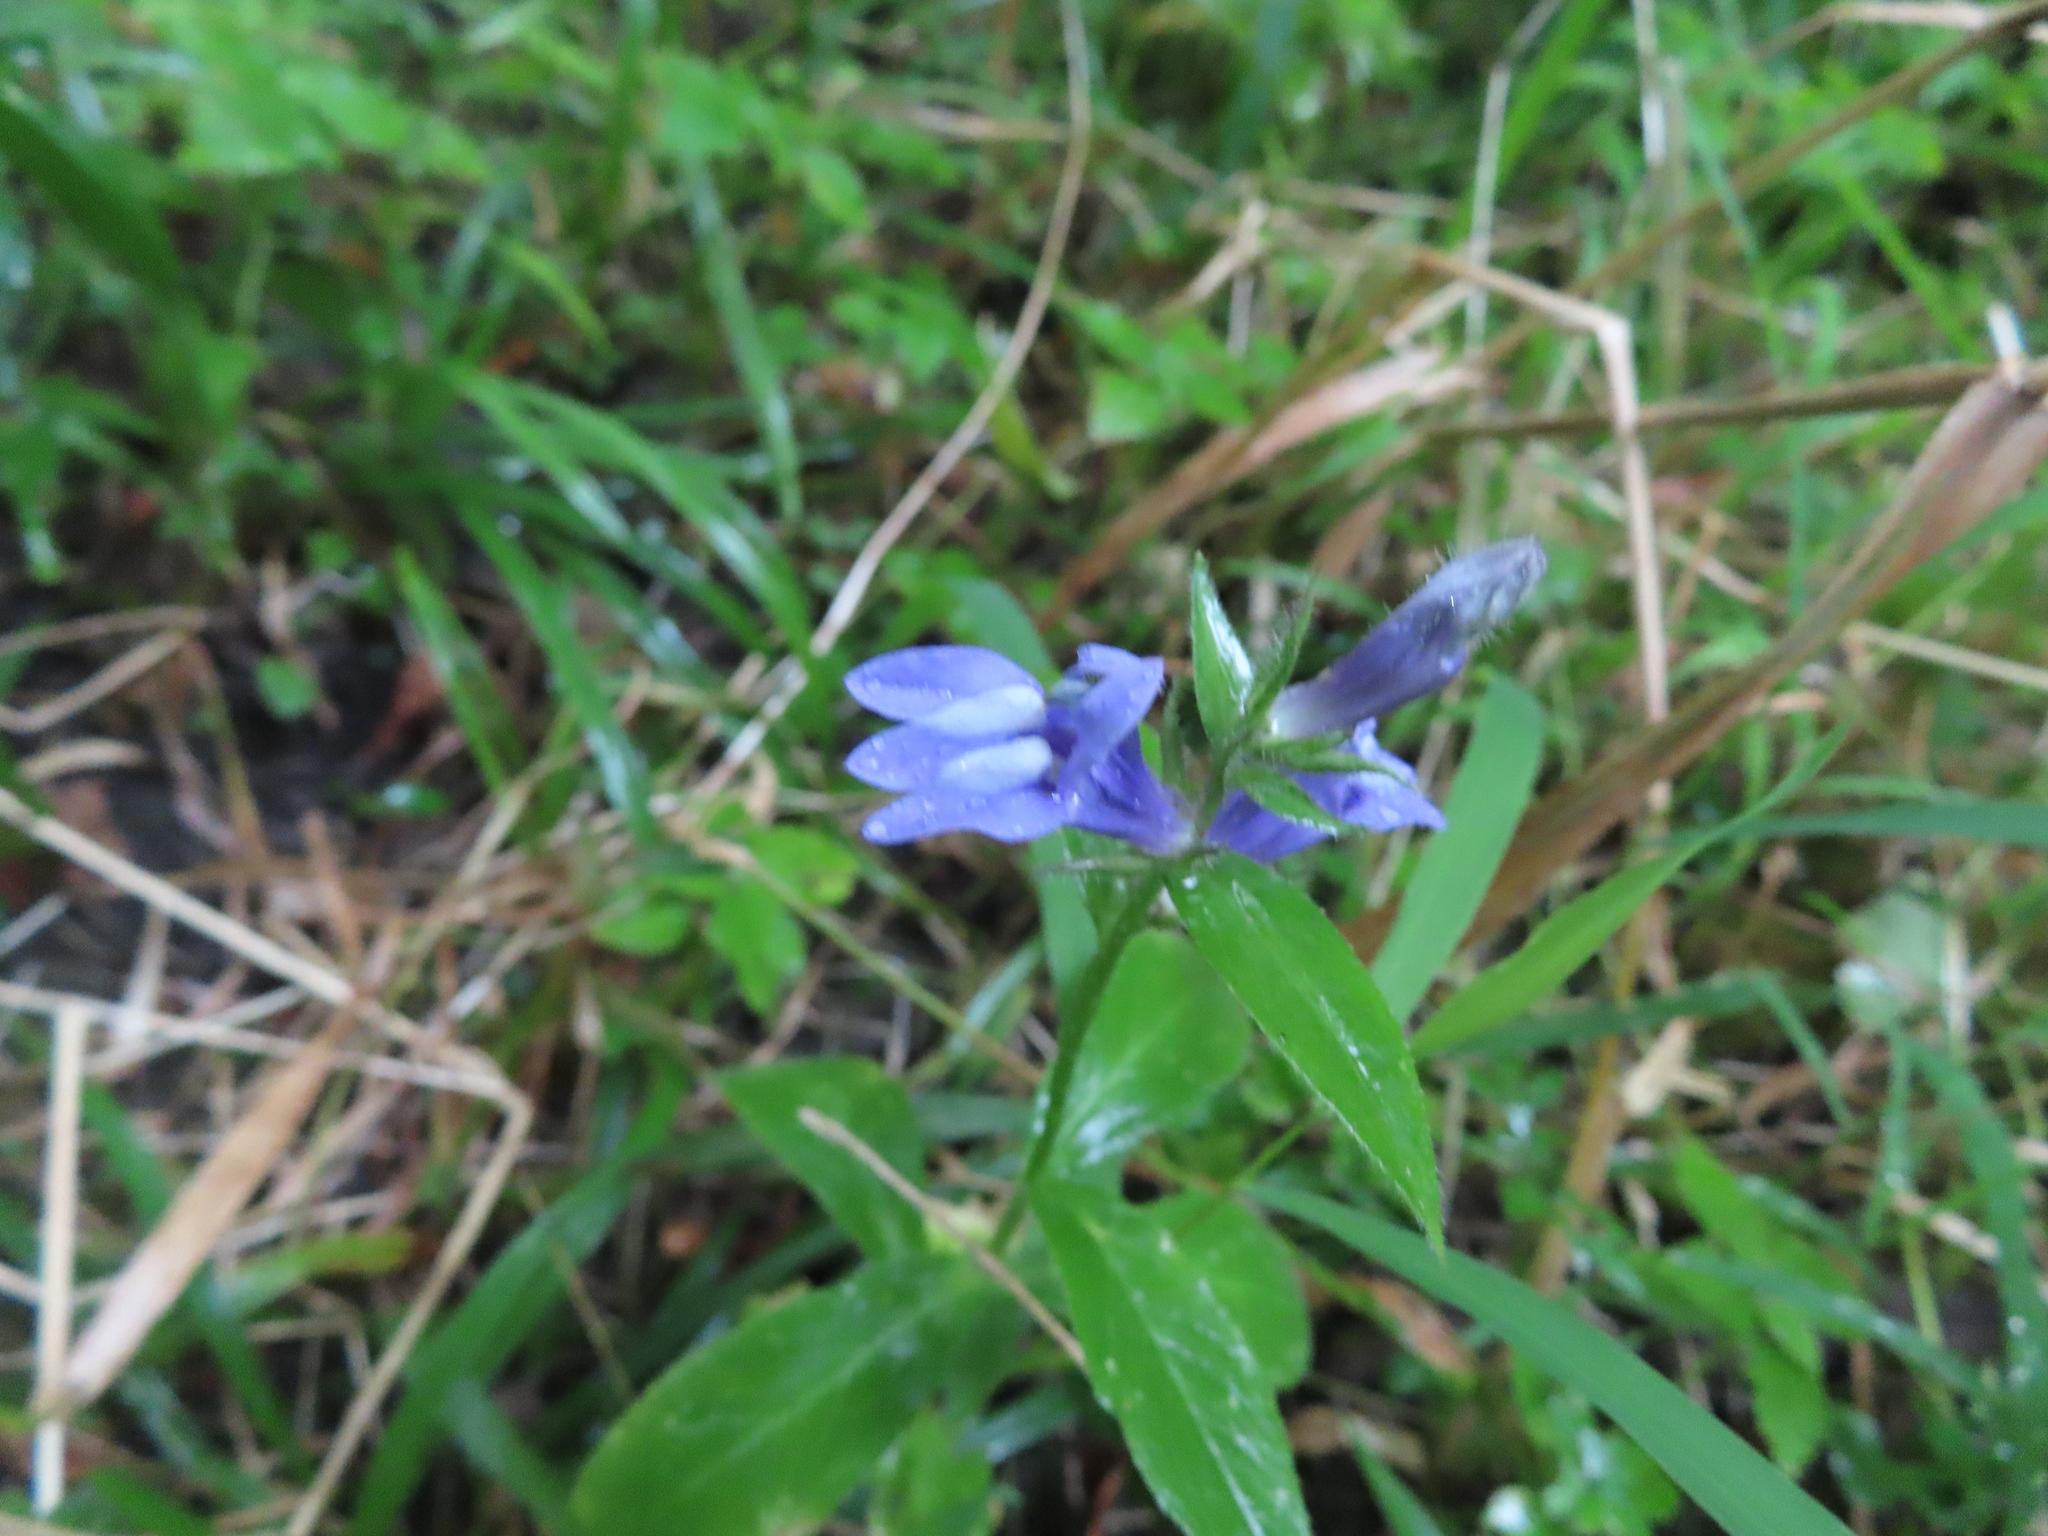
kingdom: Plantae
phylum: Tracheophyta
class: Magnoliopsida
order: Asterales
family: Campanulaceae
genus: Lobelia
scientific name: Lobelia siphilitica
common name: Great lobelia
